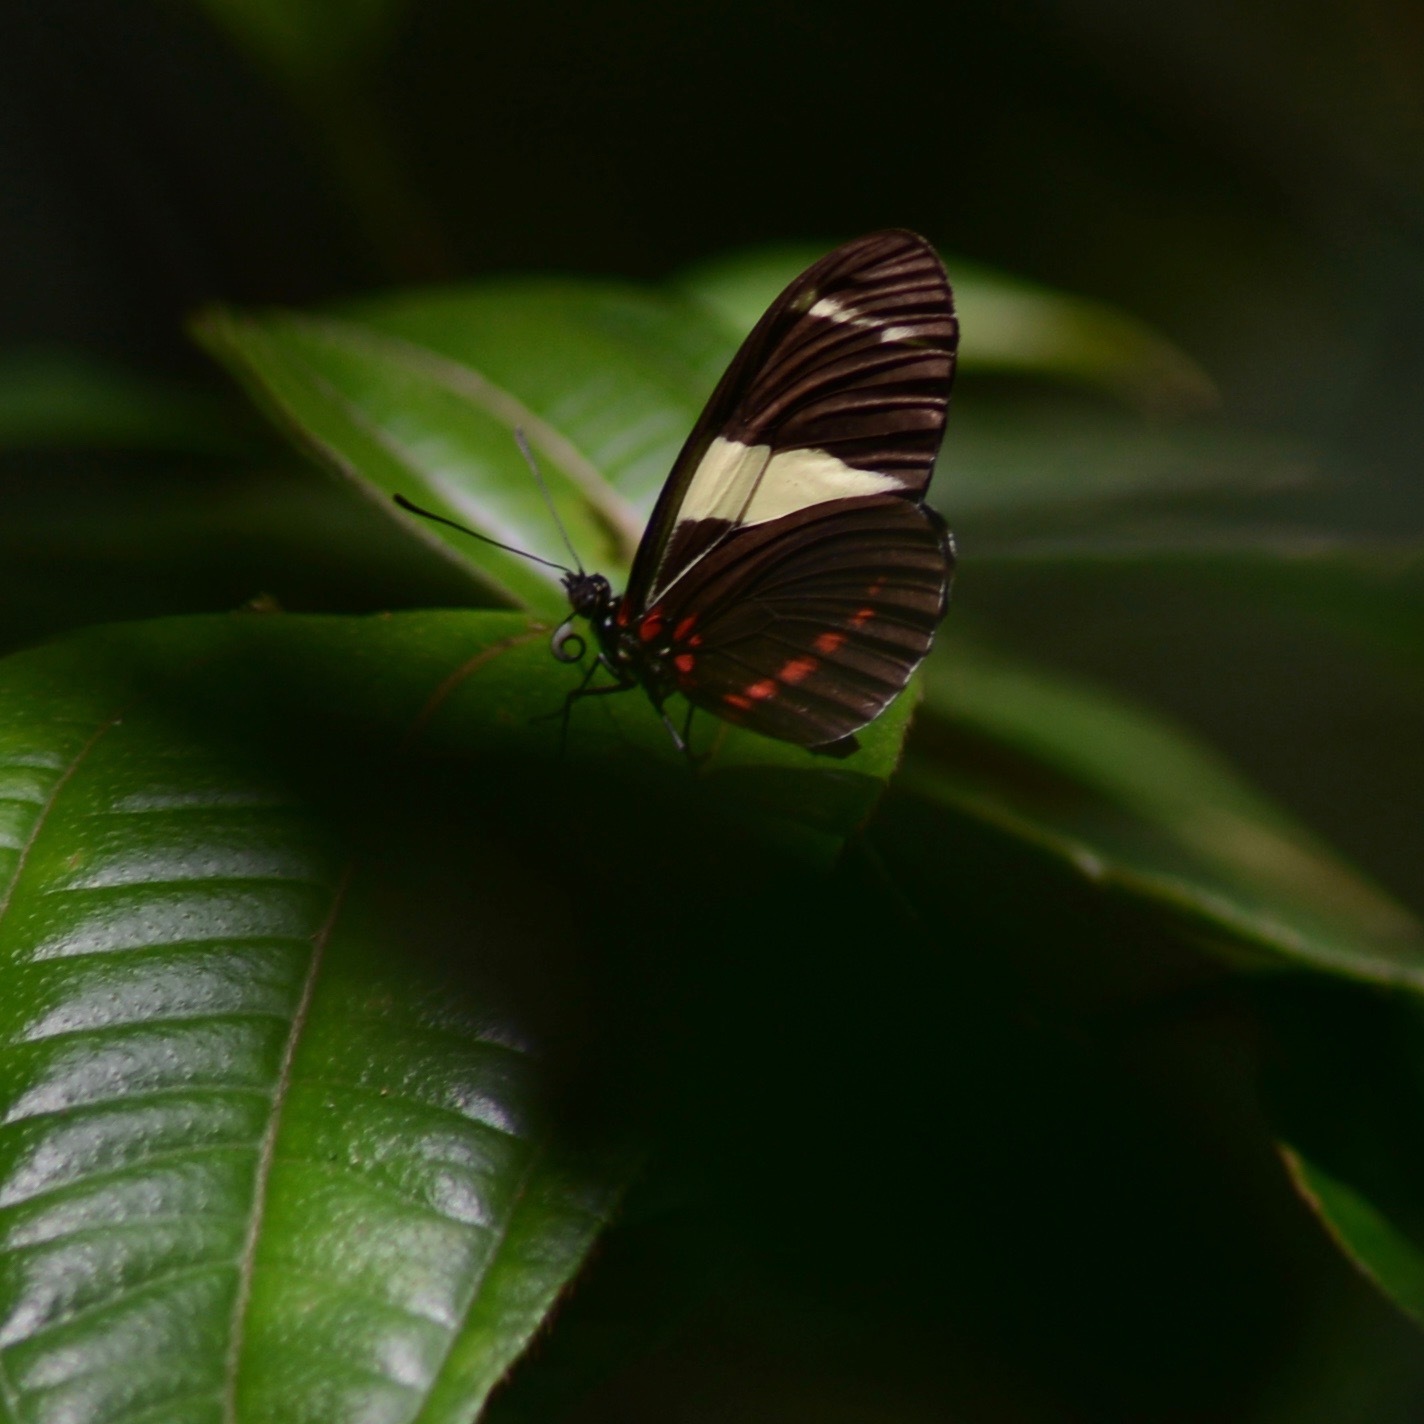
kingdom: Animalia
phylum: Arthropoda
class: Insecta
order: Lepidoptera
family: Nymphalidae
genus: Heliconius
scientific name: Heliconius sara
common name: Sara longwing
